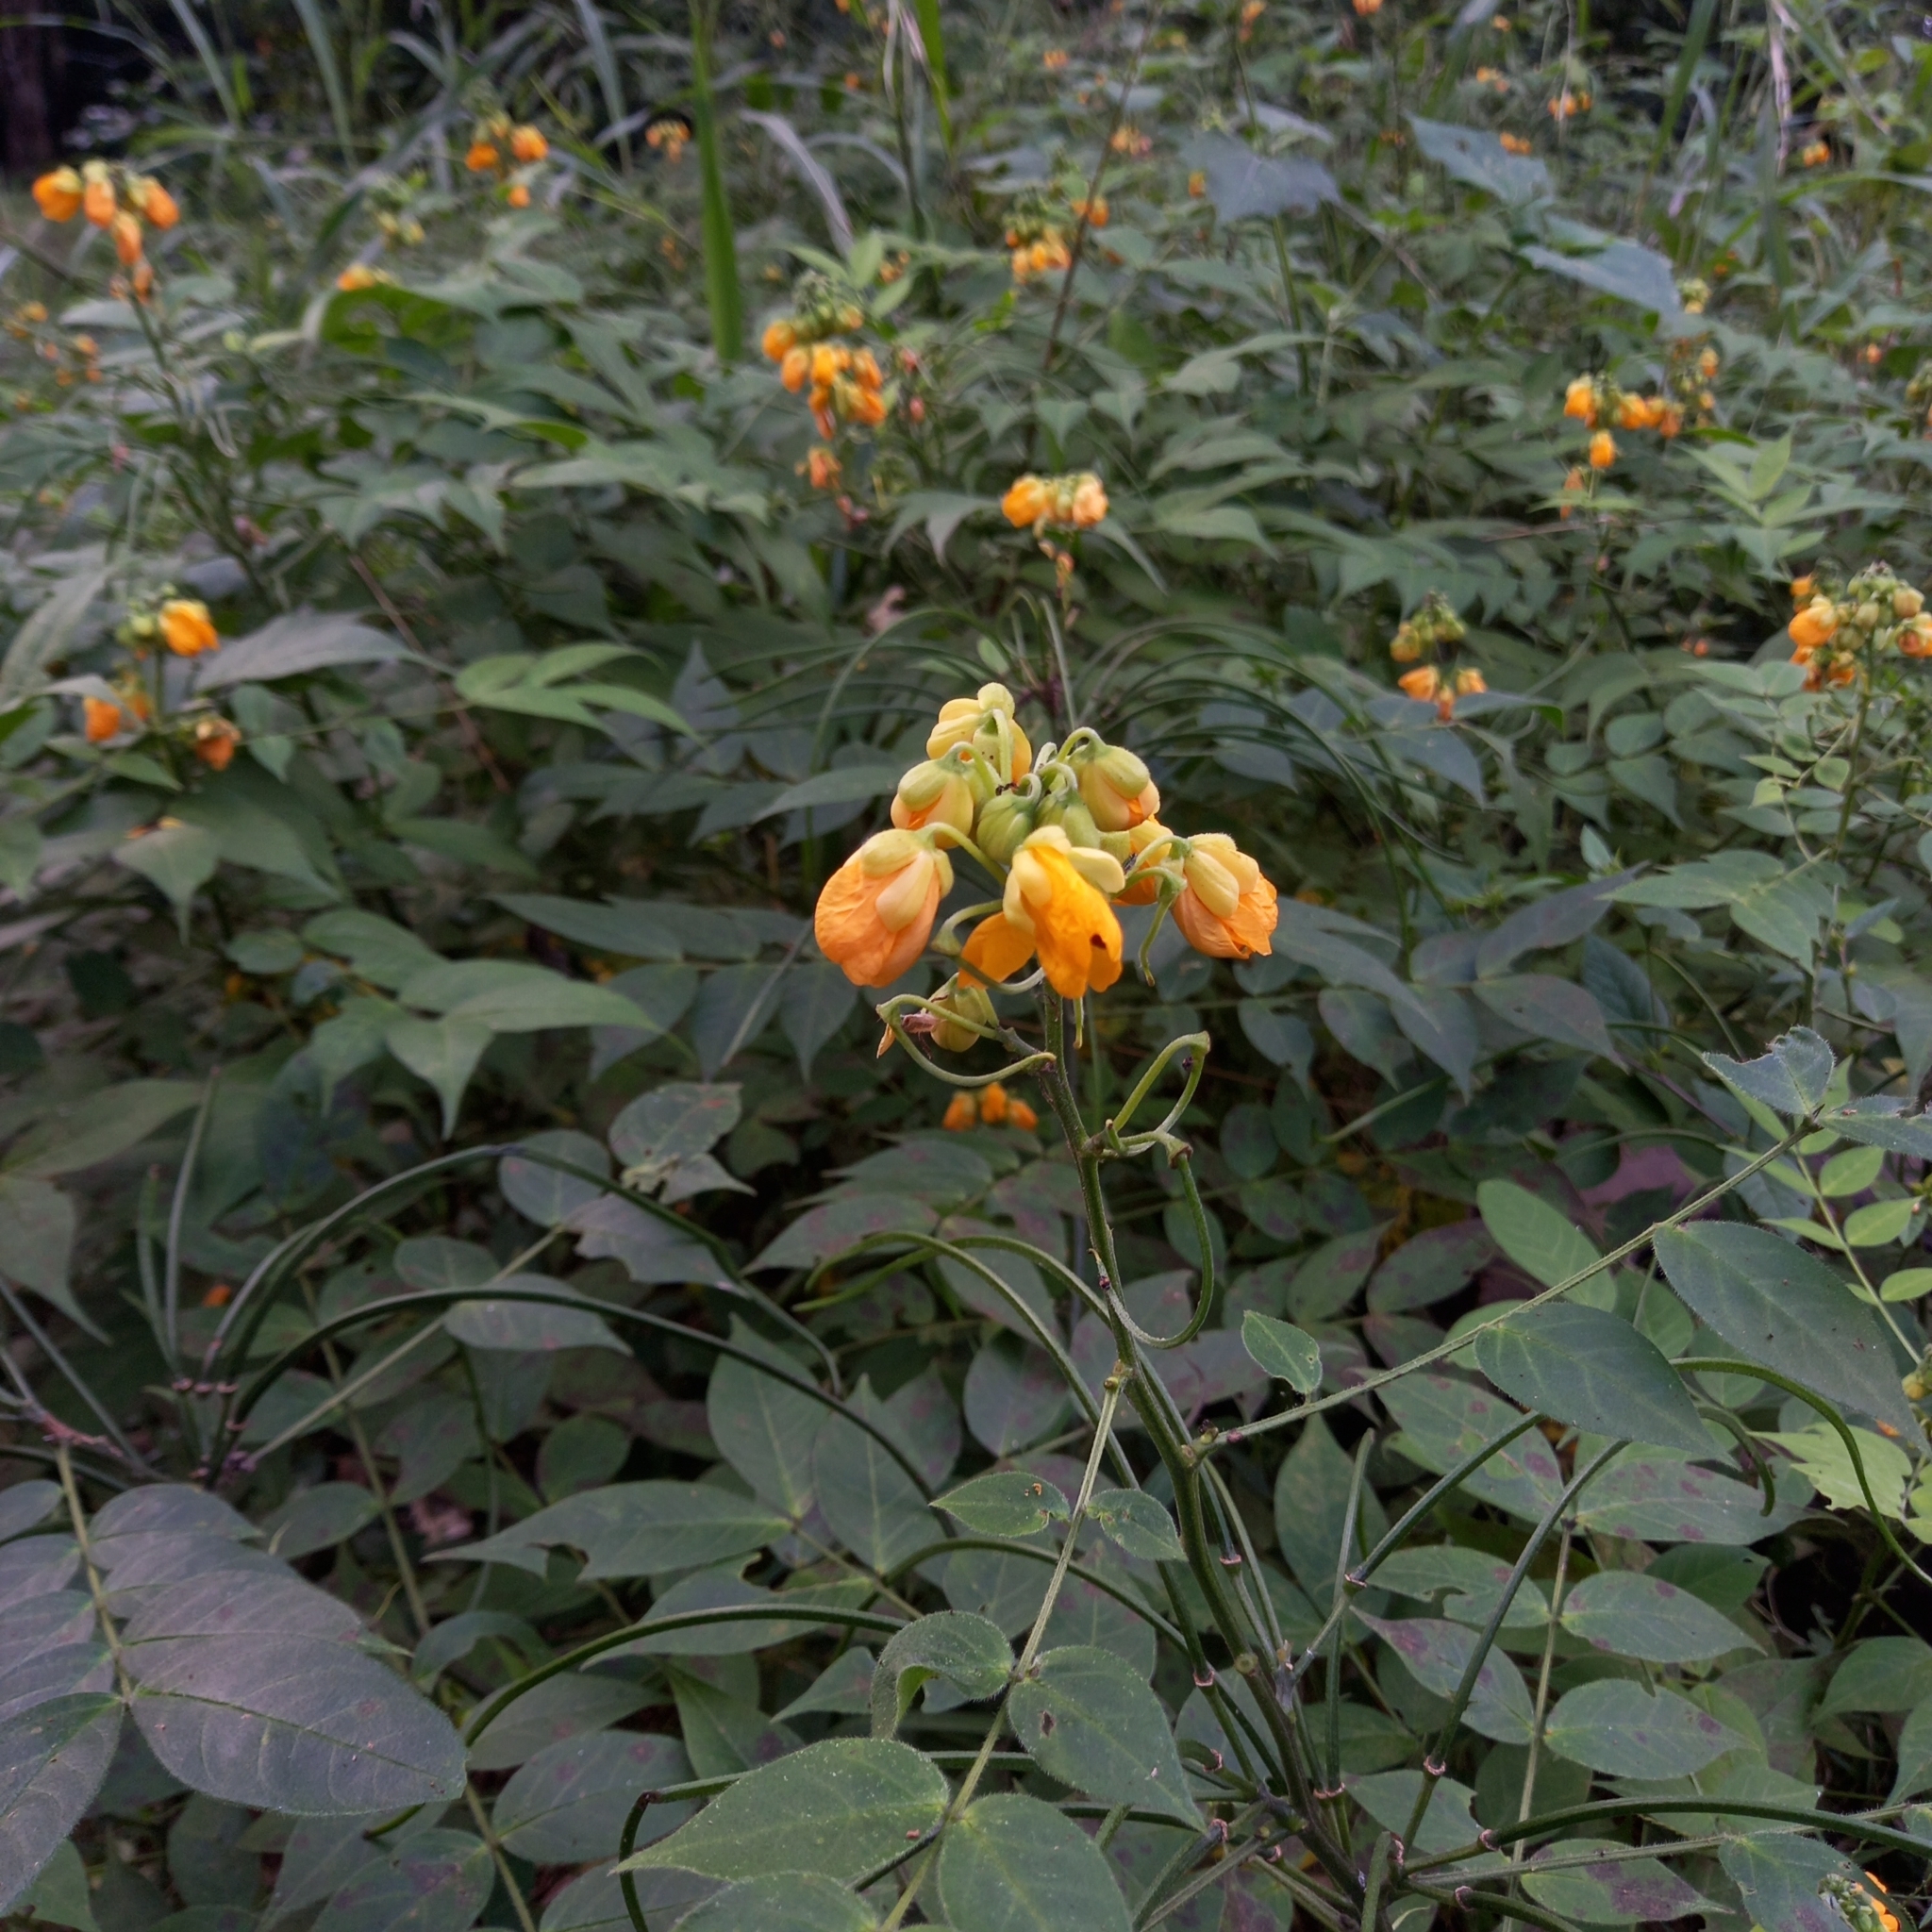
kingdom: Plantae
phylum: Tracheophyta
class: Magnoliopsida
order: Fabales
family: Fabaceae
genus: Senna
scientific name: Senna hirsuta
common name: Woolly senna
